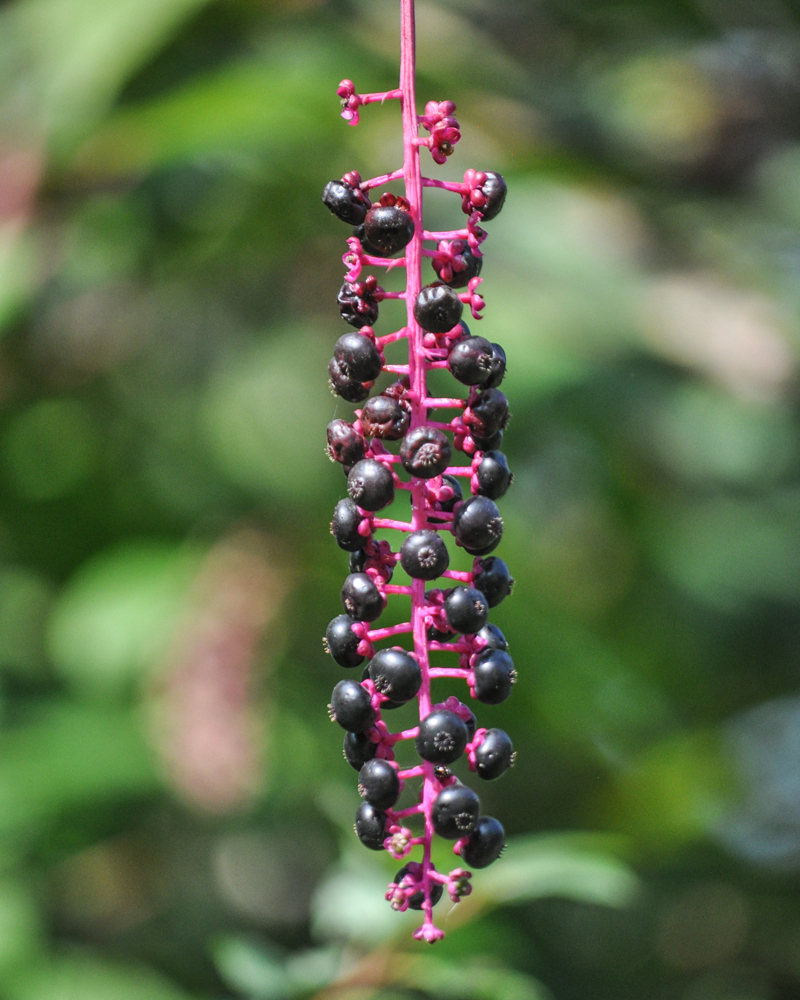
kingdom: Plantae
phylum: Tracheophyta
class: Magnoliopsida
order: Caryophyllales
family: Phytolaccaceae
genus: Phytolacca
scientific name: Phytolacca americana
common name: American pokeweed
